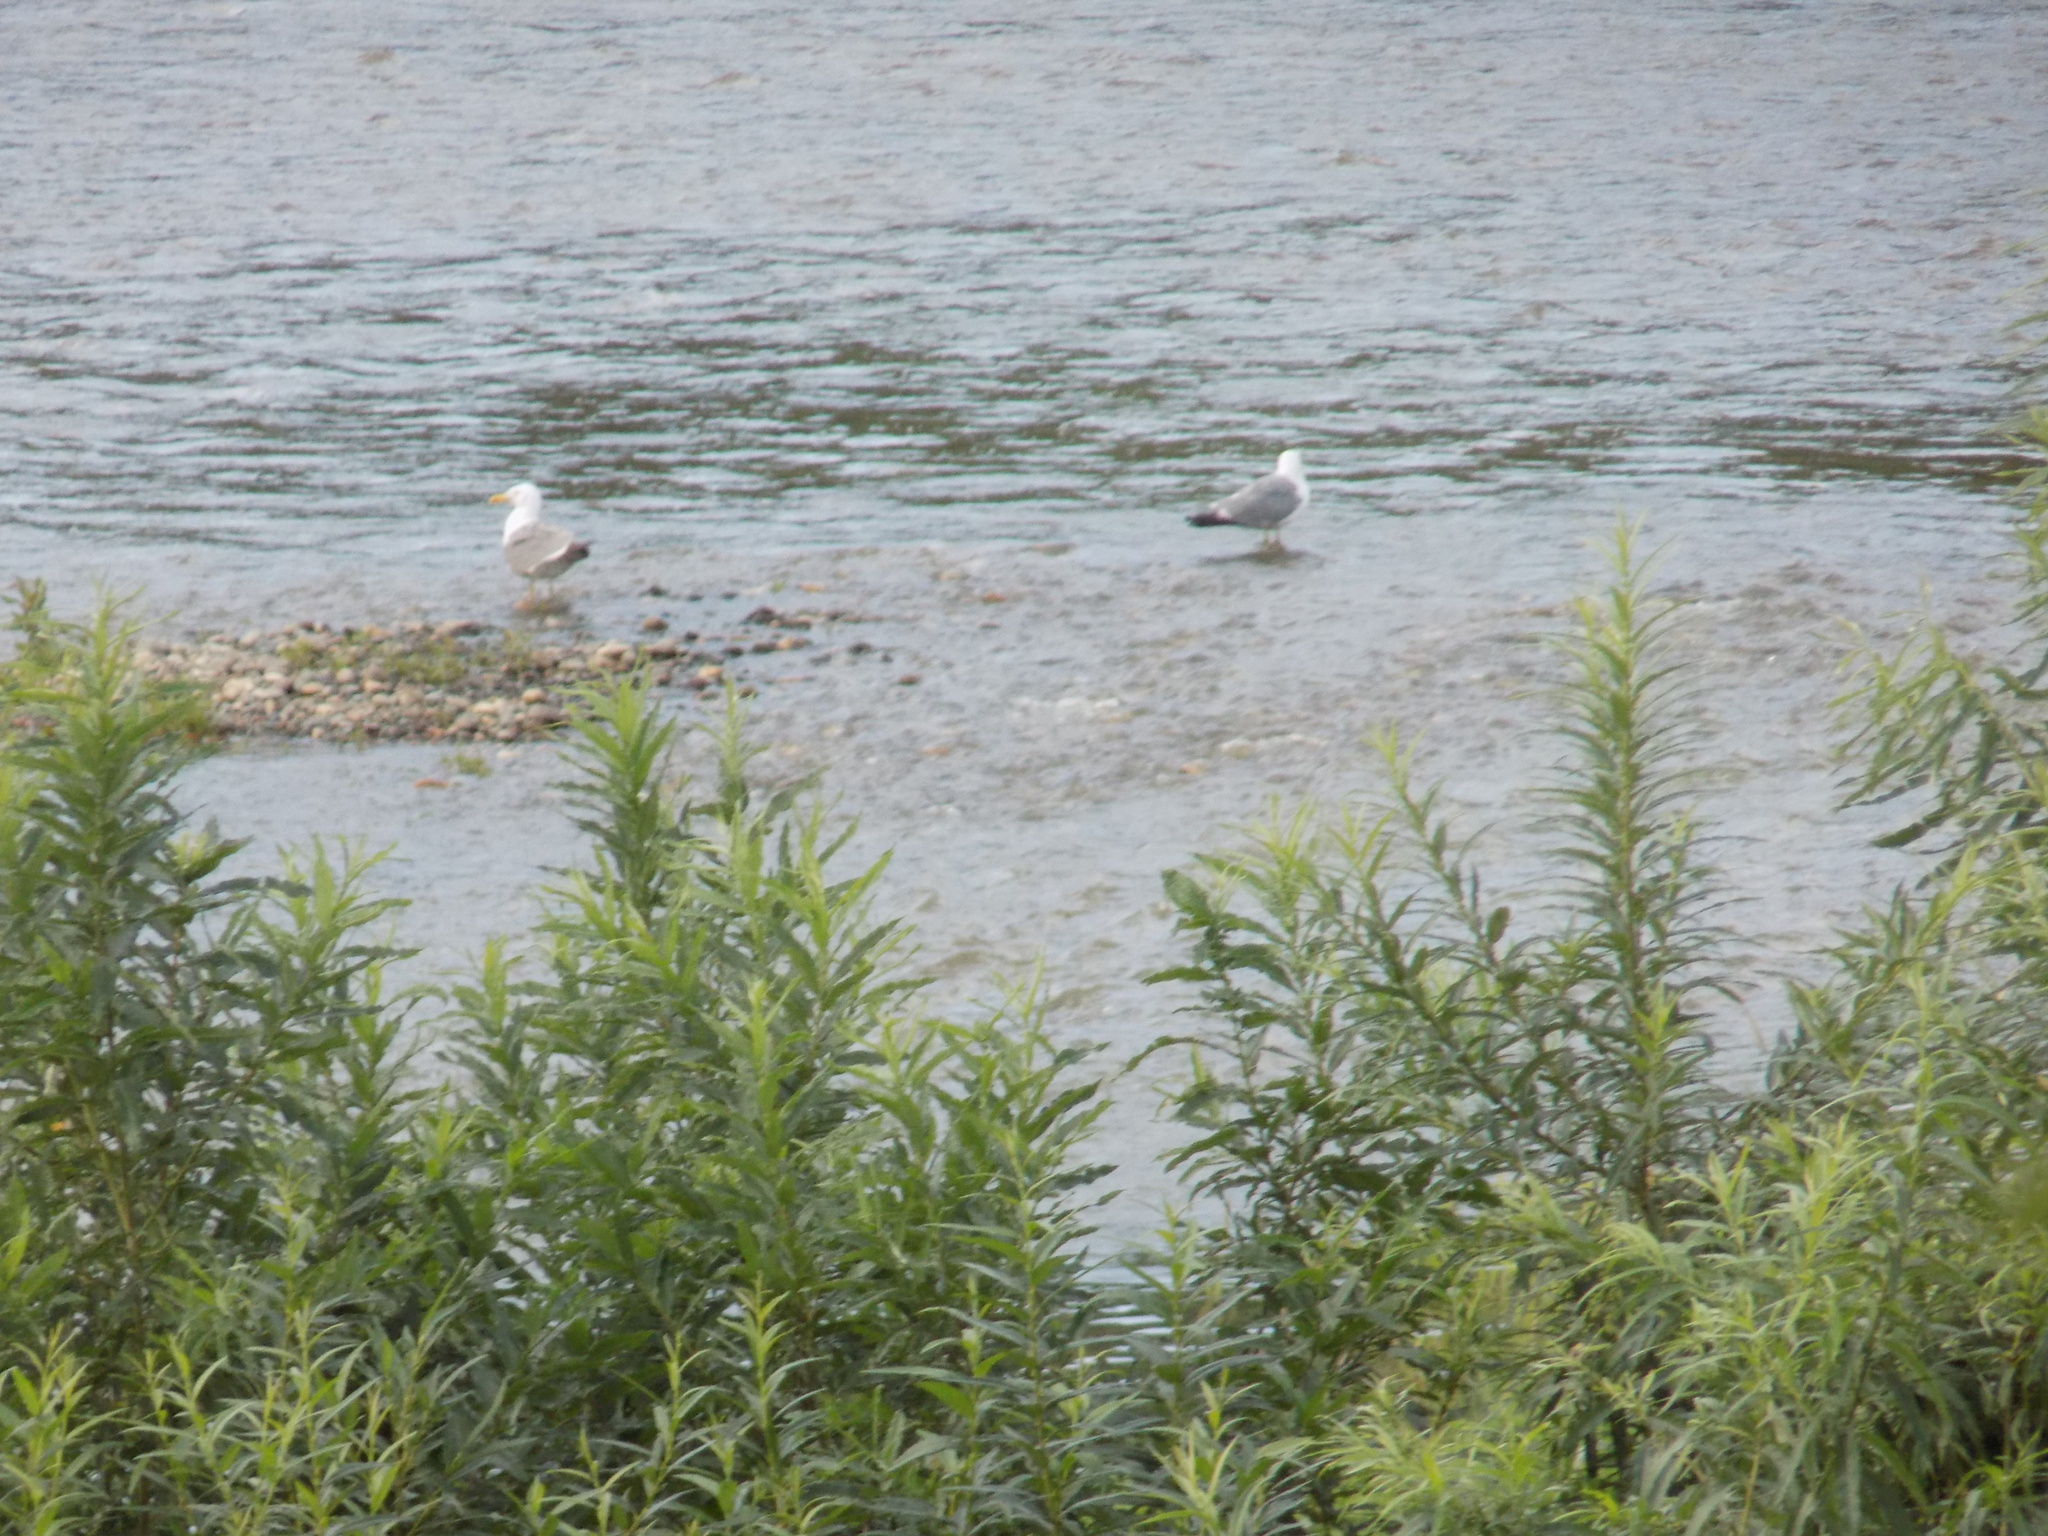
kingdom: Animalia
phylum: Chordata
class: Aves
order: Charadriiformes
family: Laridae
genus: Larus
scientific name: Larus fuscus
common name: Lesser black-backed gull
